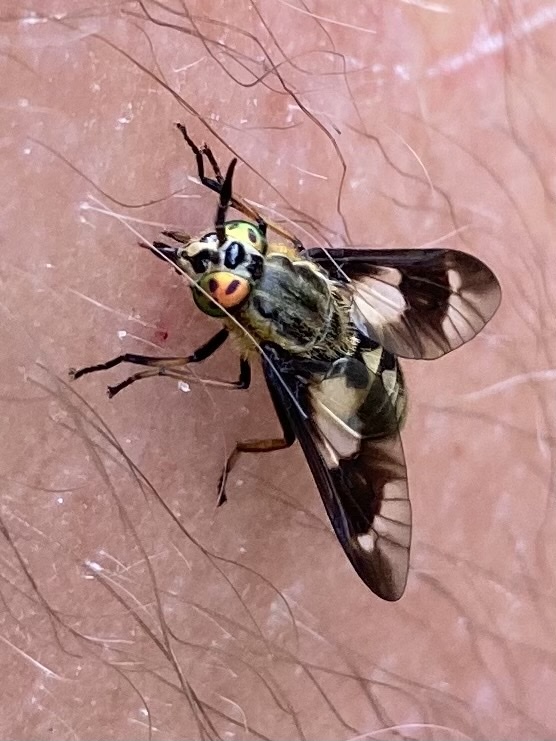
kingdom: Animalia
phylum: Arthropoda
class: Insecta
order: Diptera
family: Tabanidae
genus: Chrysops
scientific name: Chrysops relictus
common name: Twin-lobed deerfly
